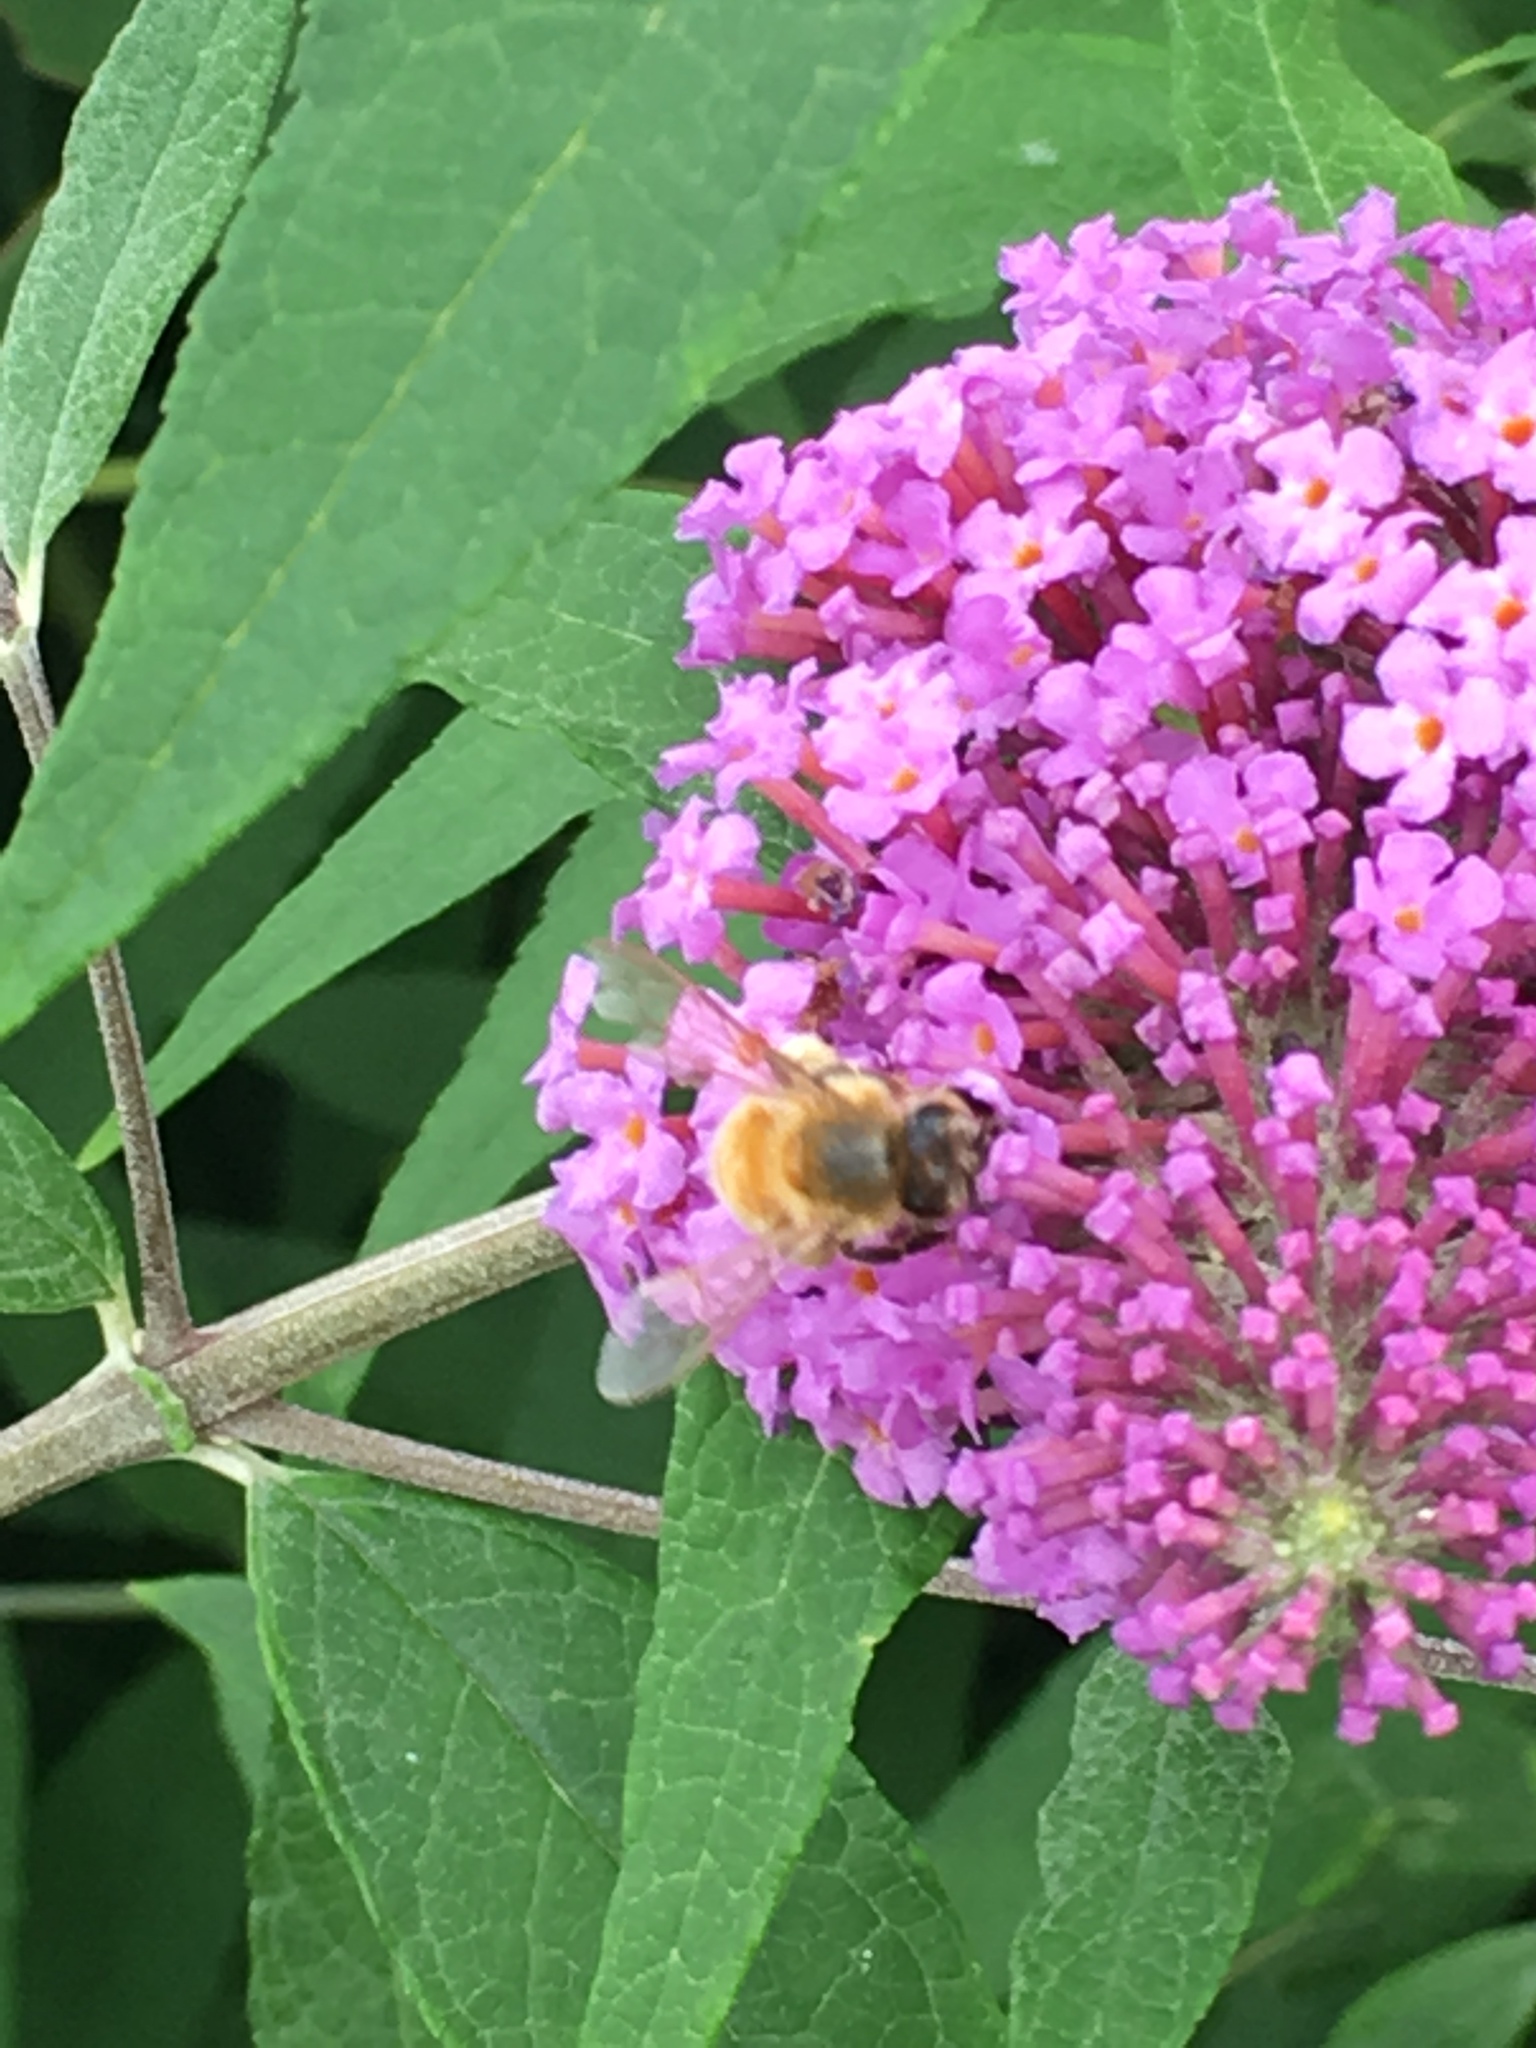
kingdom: Animalia
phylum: Arthropoda
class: Insecta
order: Hymenoptera
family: Apidae
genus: Apis
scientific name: Apis mellifera
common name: Honey bee
